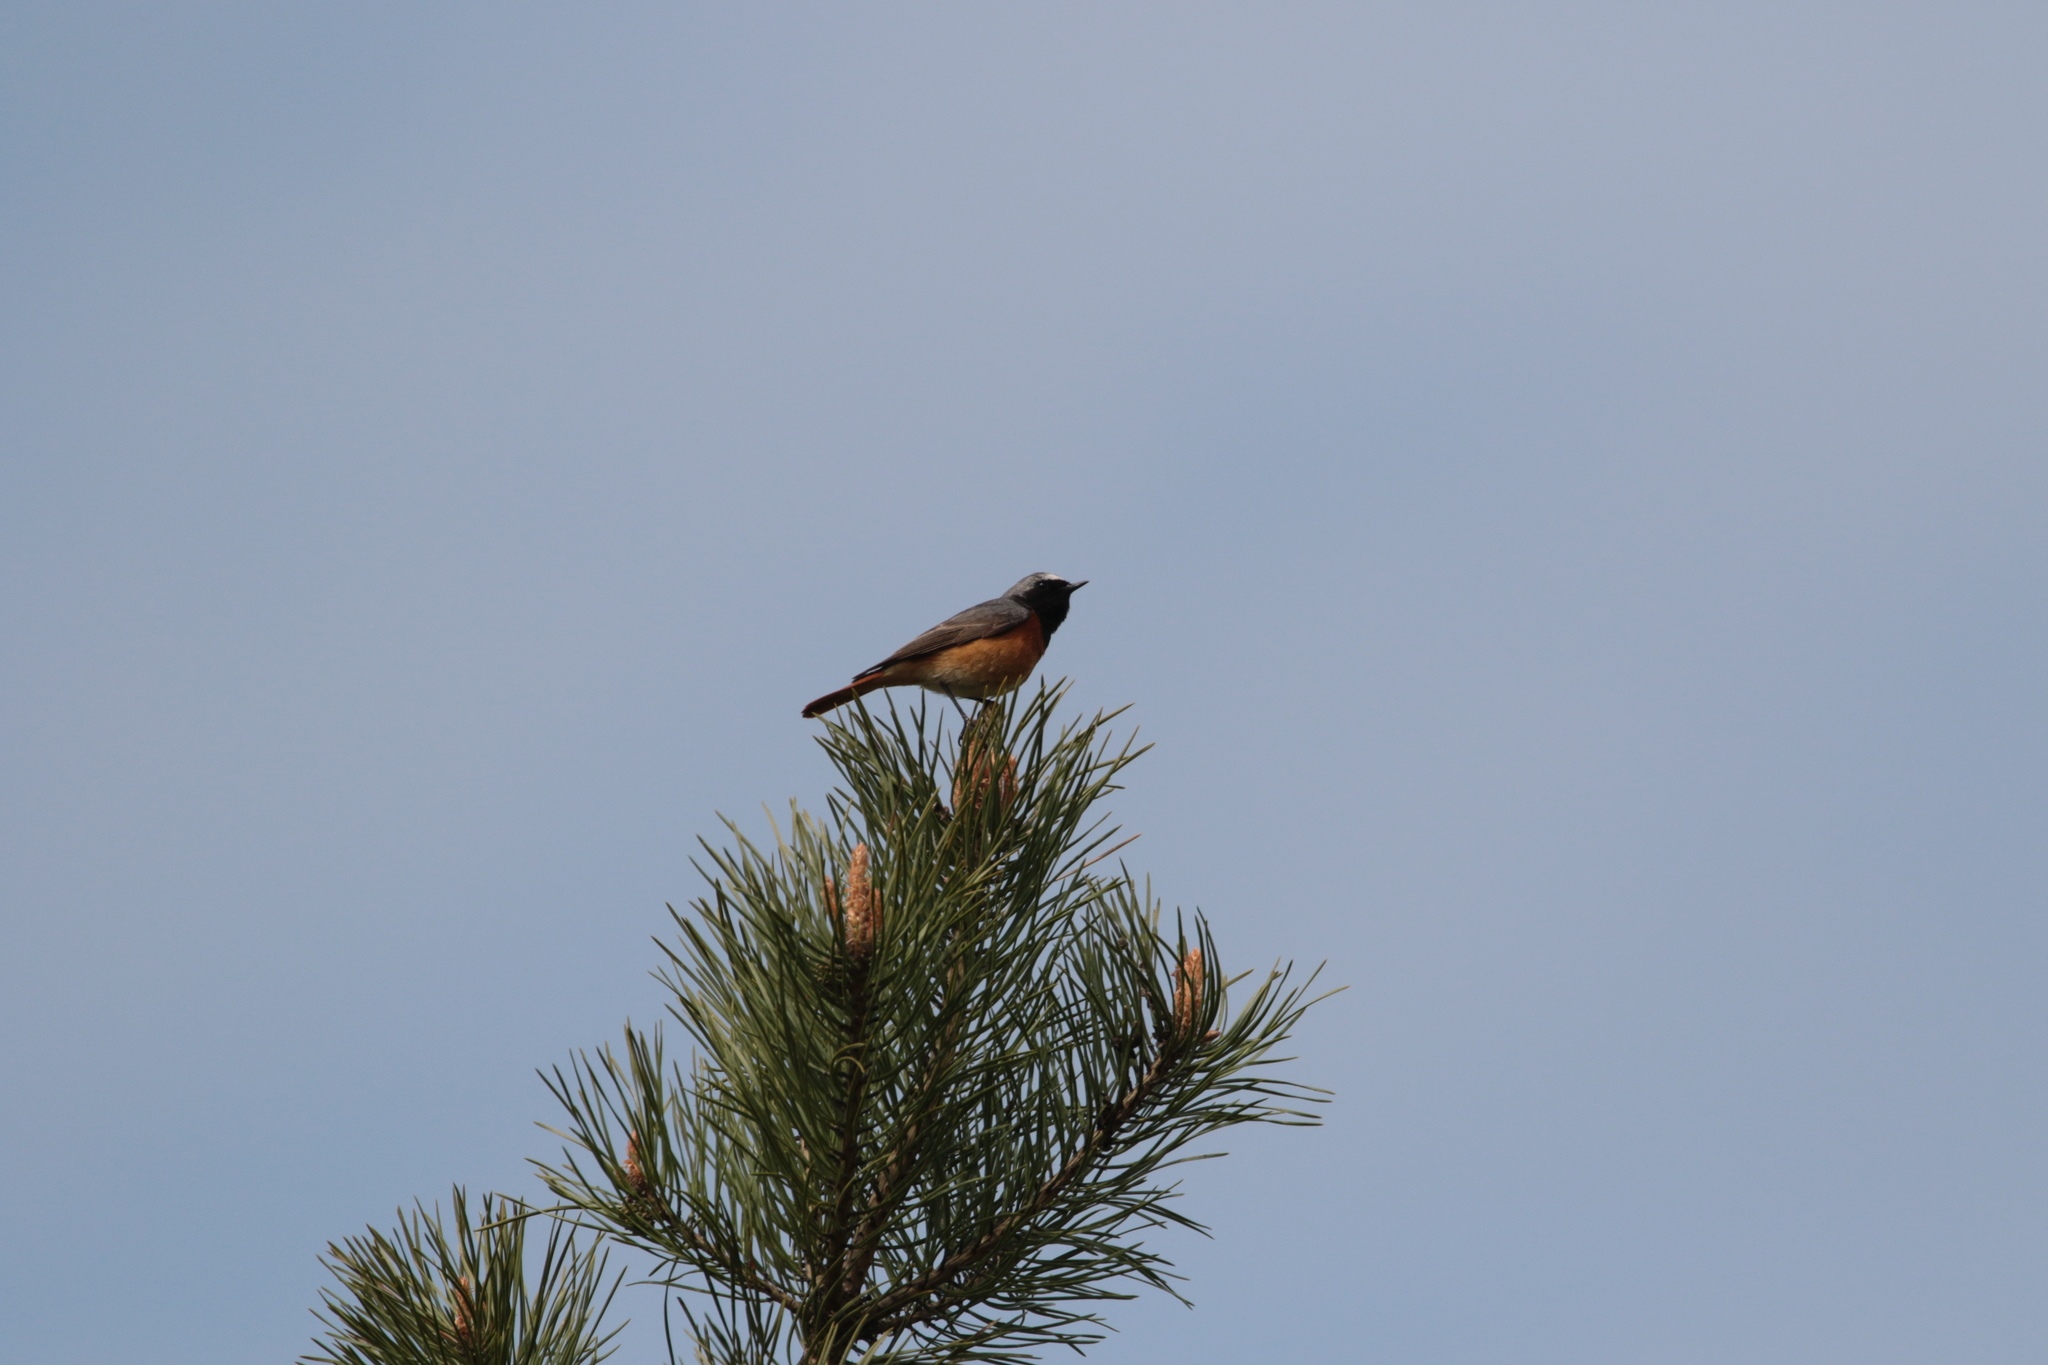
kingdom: Animalia
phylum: Chordata
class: Aves
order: Passeriformes
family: Muscicapidae
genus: Phoenicurus
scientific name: Phoenicurus phoenicurus
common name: Common redstart
